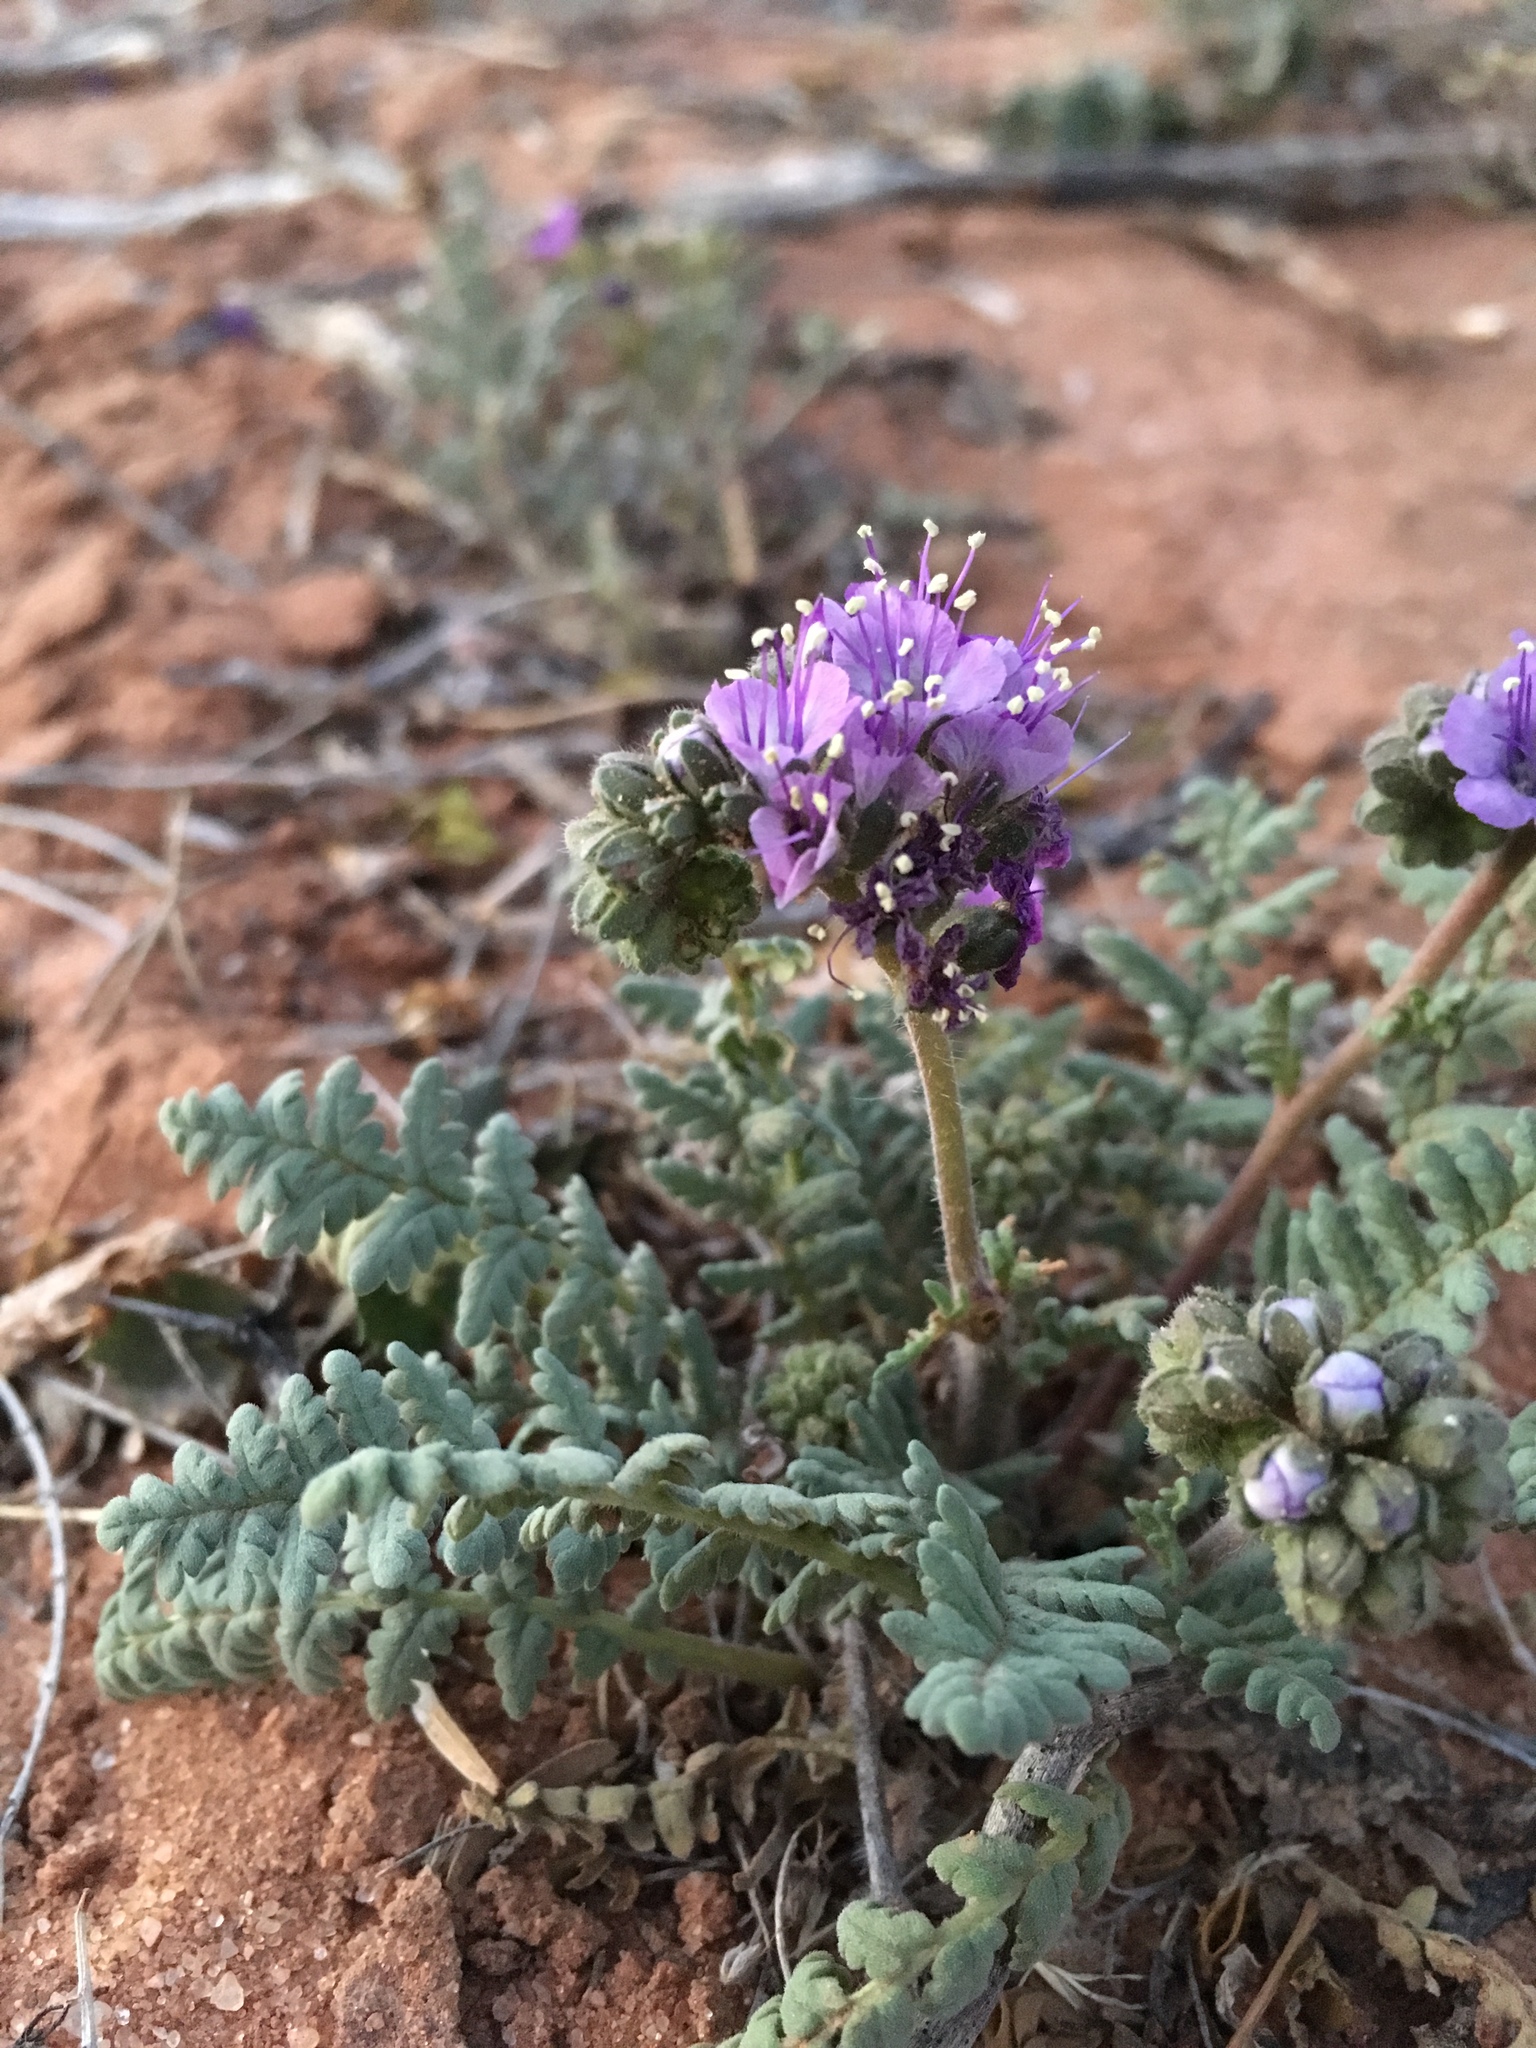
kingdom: Plantae
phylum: Tracheophyta
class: Magnoliopsida
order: Boraginales
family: Hydrophyllaceae
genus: Phacelia
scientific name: Phacelia popei
